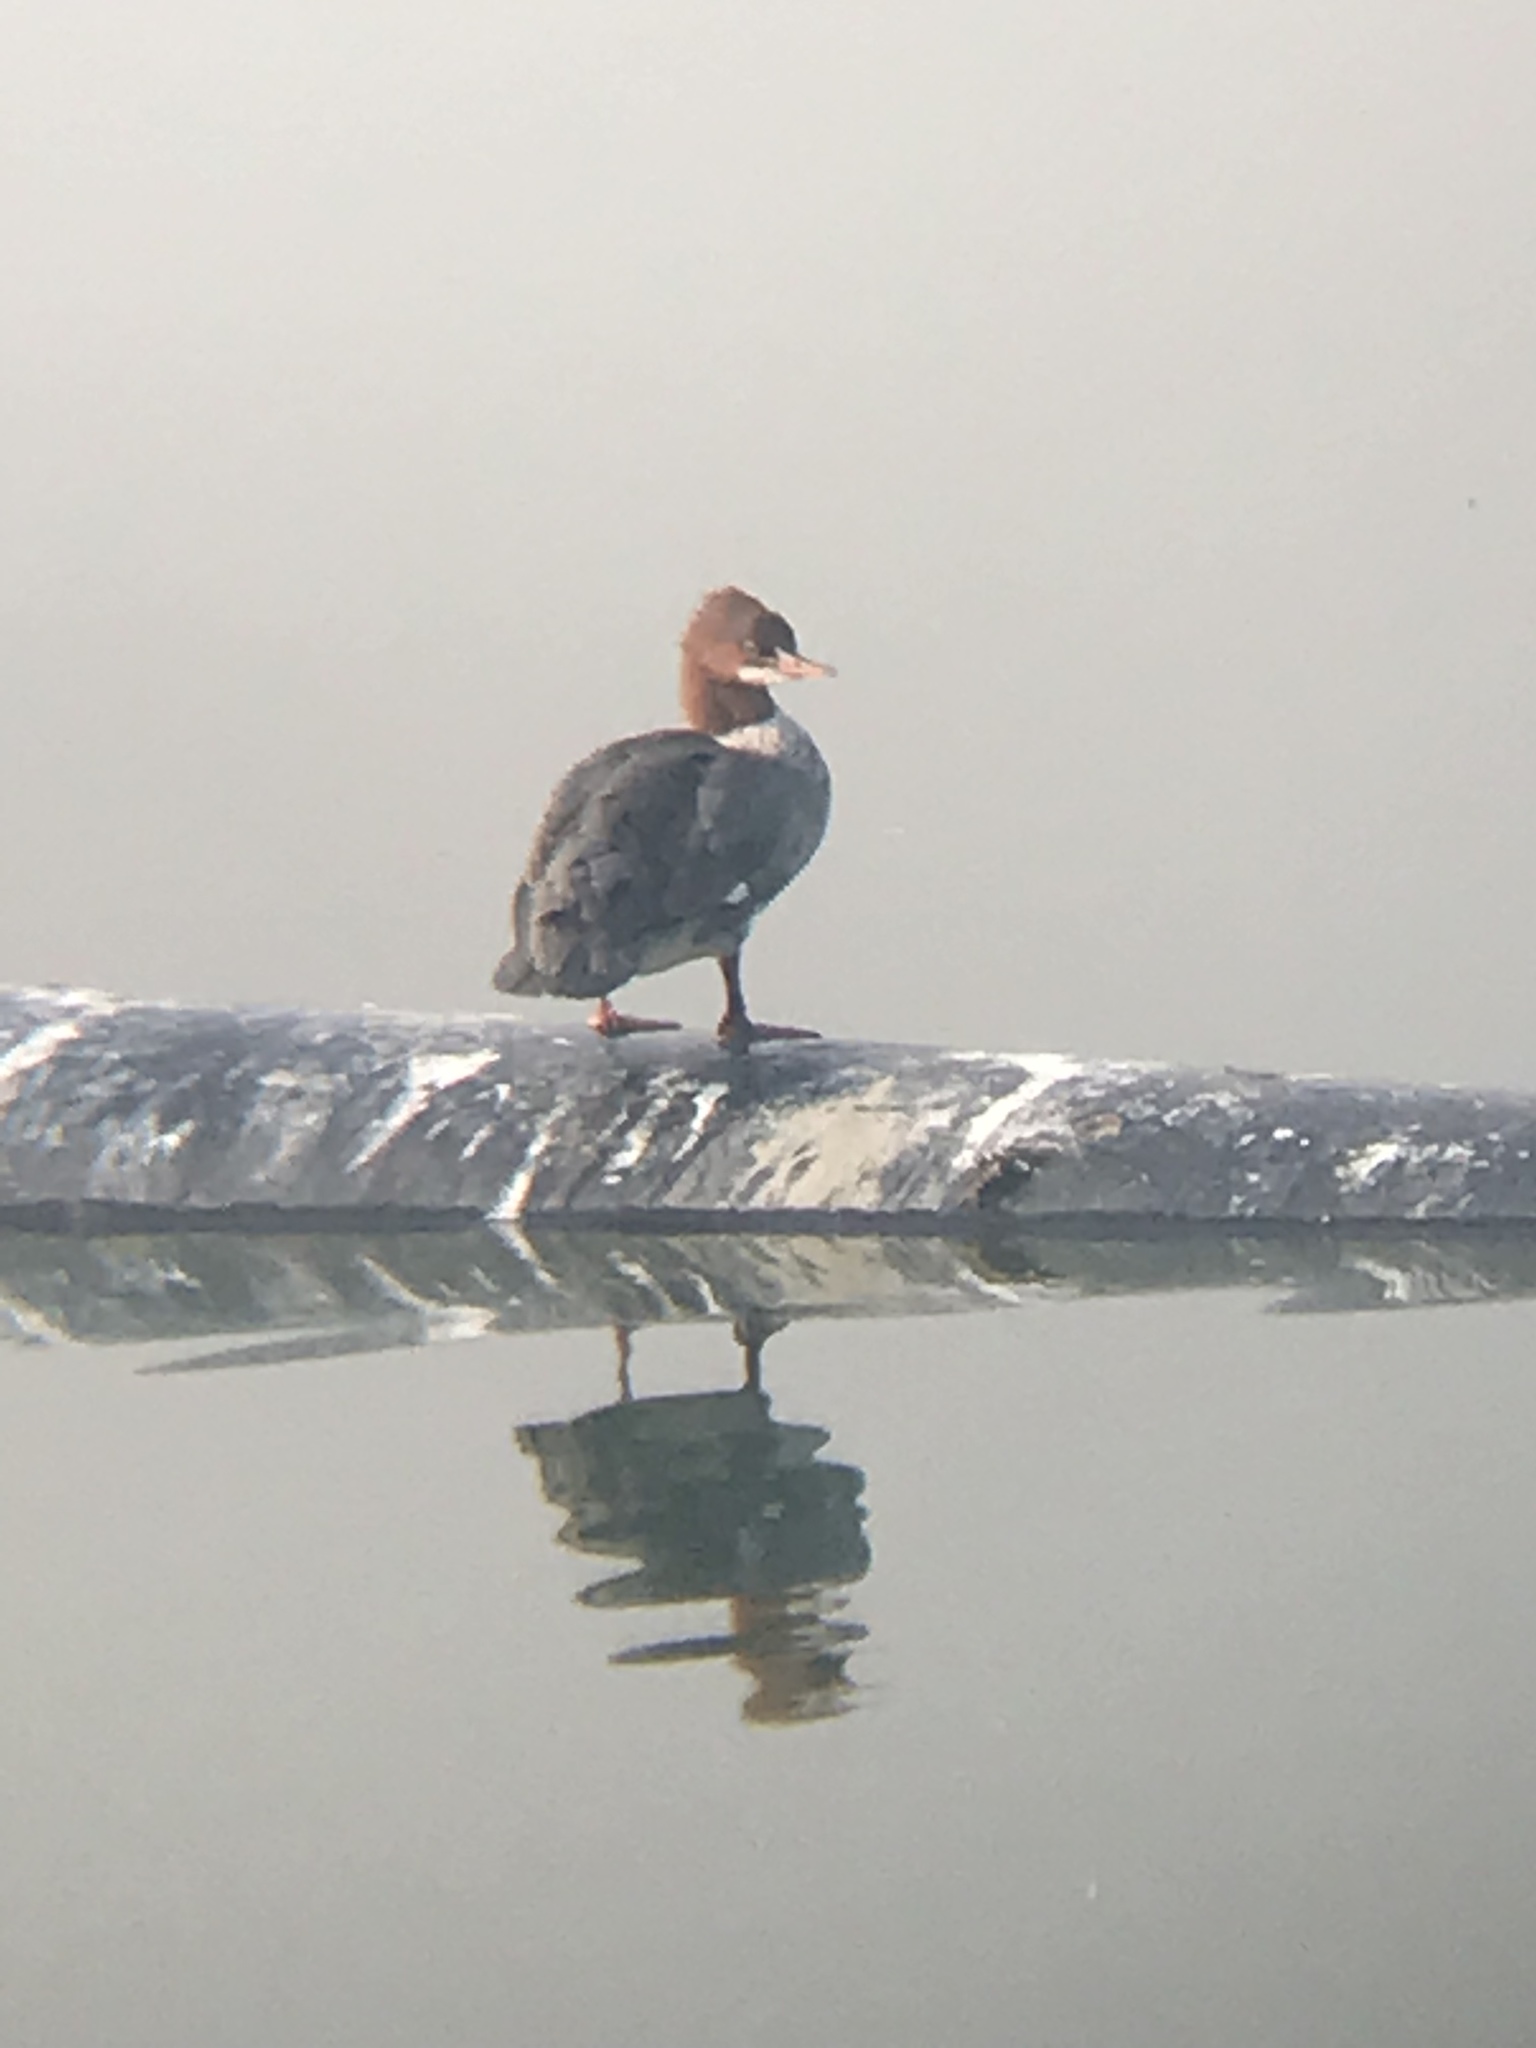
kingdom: Animalia
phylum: Chordata
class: Aves
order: Anseriformes
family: Anatidae
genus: Mergus
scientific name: Mergus merganser
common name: Common merganser
